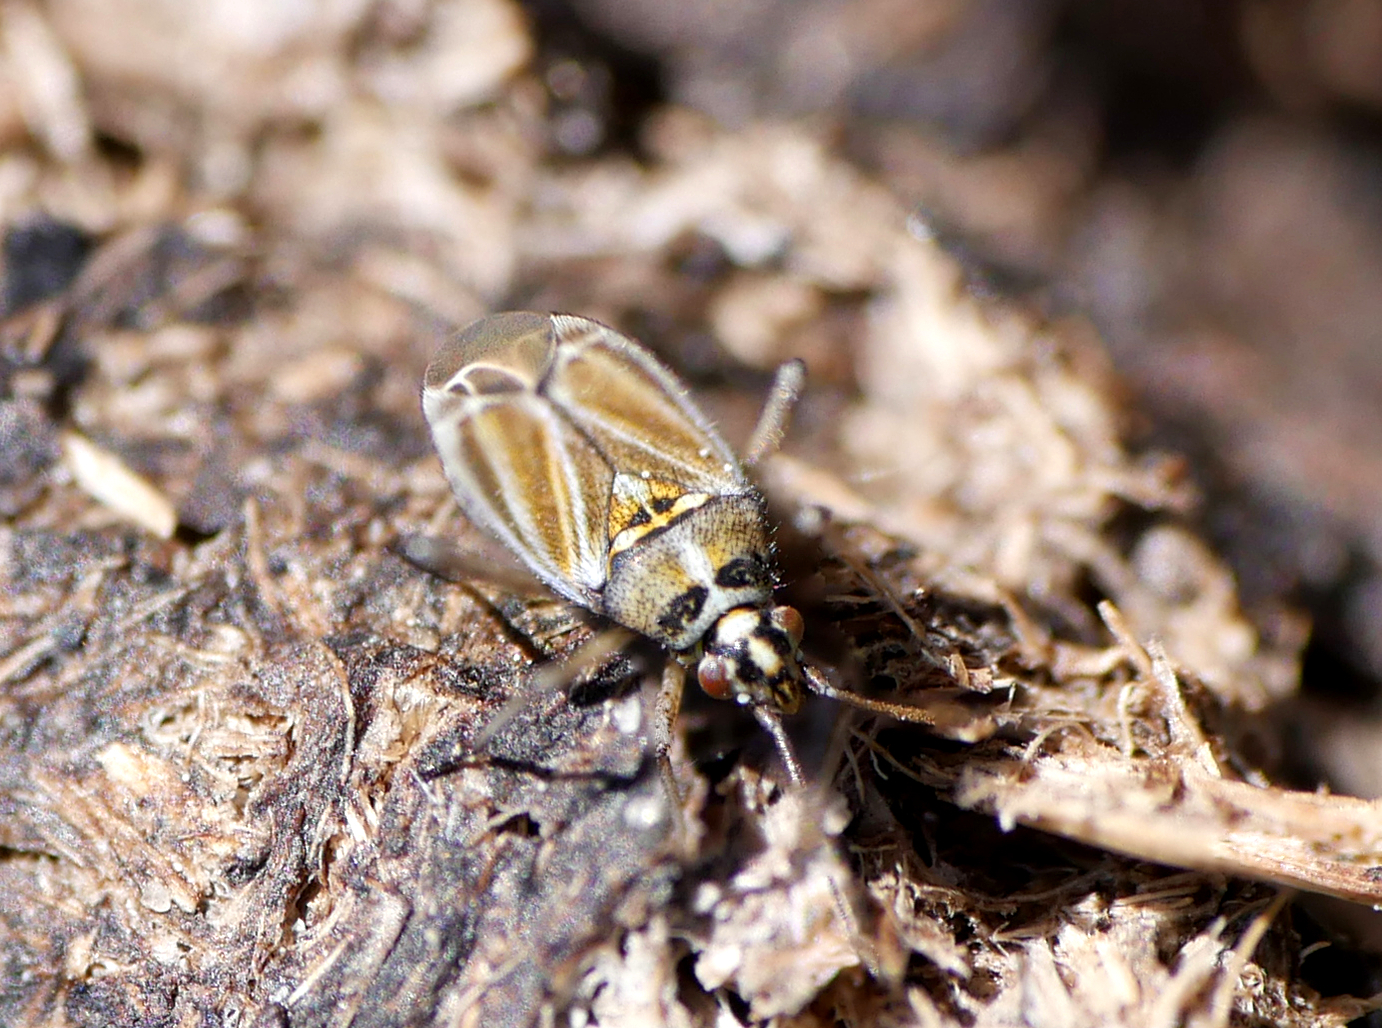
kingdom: Animalia
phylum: Arthropoda
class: Insecta
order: Hemiptera
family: Miridae
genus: Hoplomachus
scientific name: Hoplomachus thunbergii
